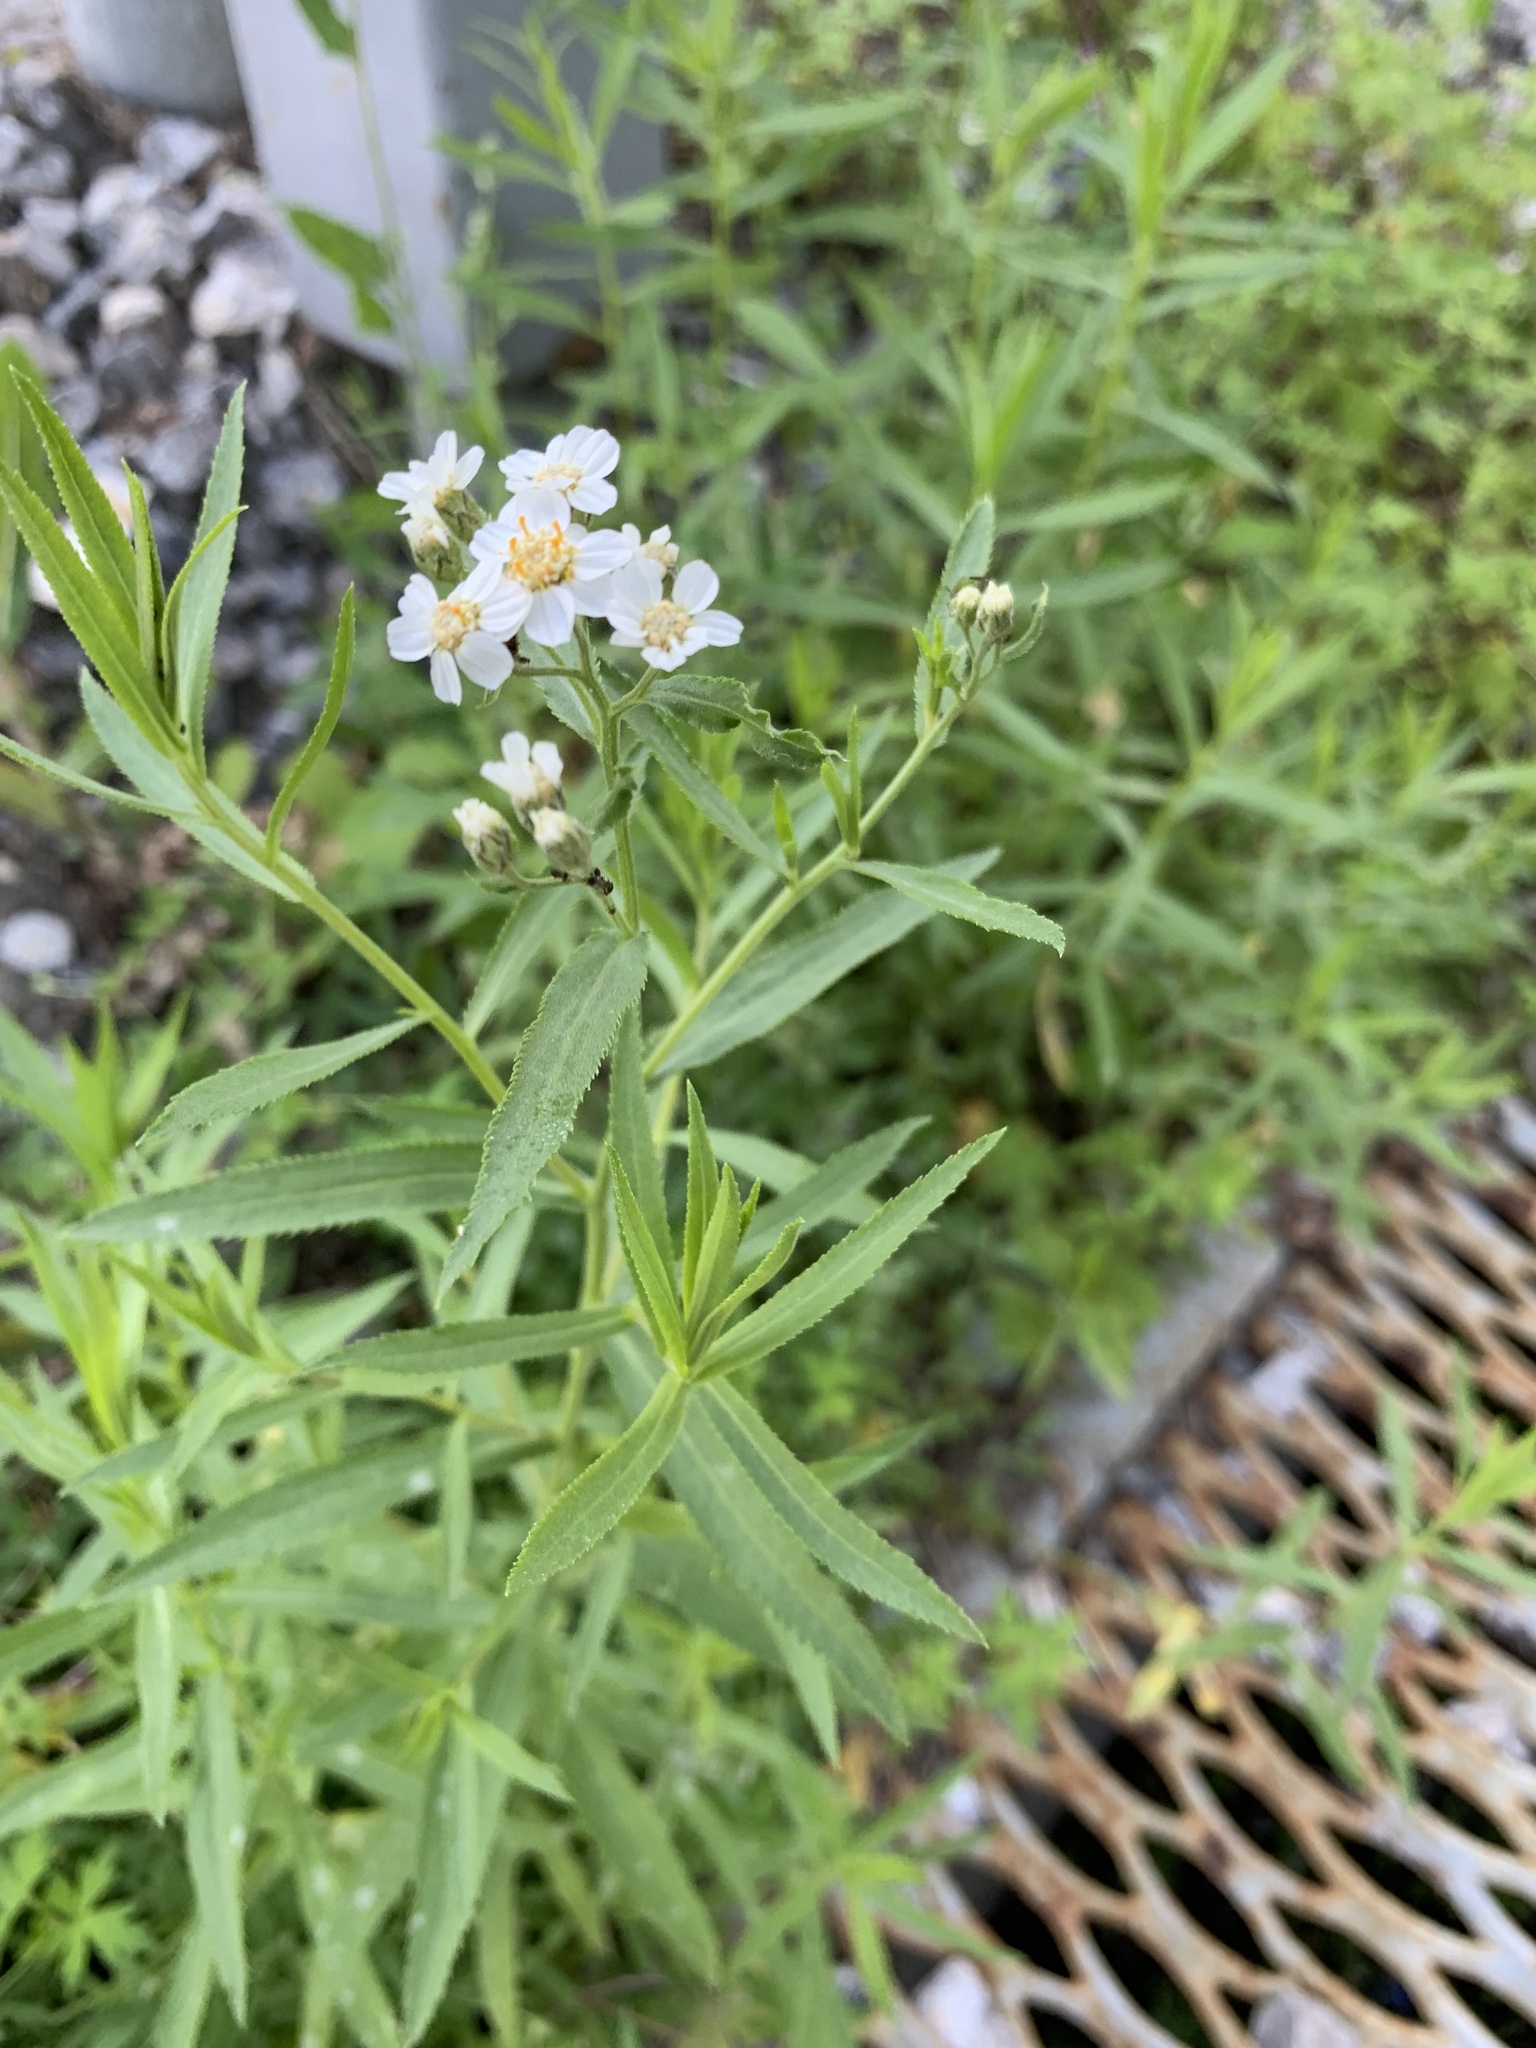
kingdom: Plantae
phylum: Tracheophyta
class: Magnoliopsida
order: Asterales
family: Asteraceae
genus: Achillea
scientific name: Achillea salicifolia
